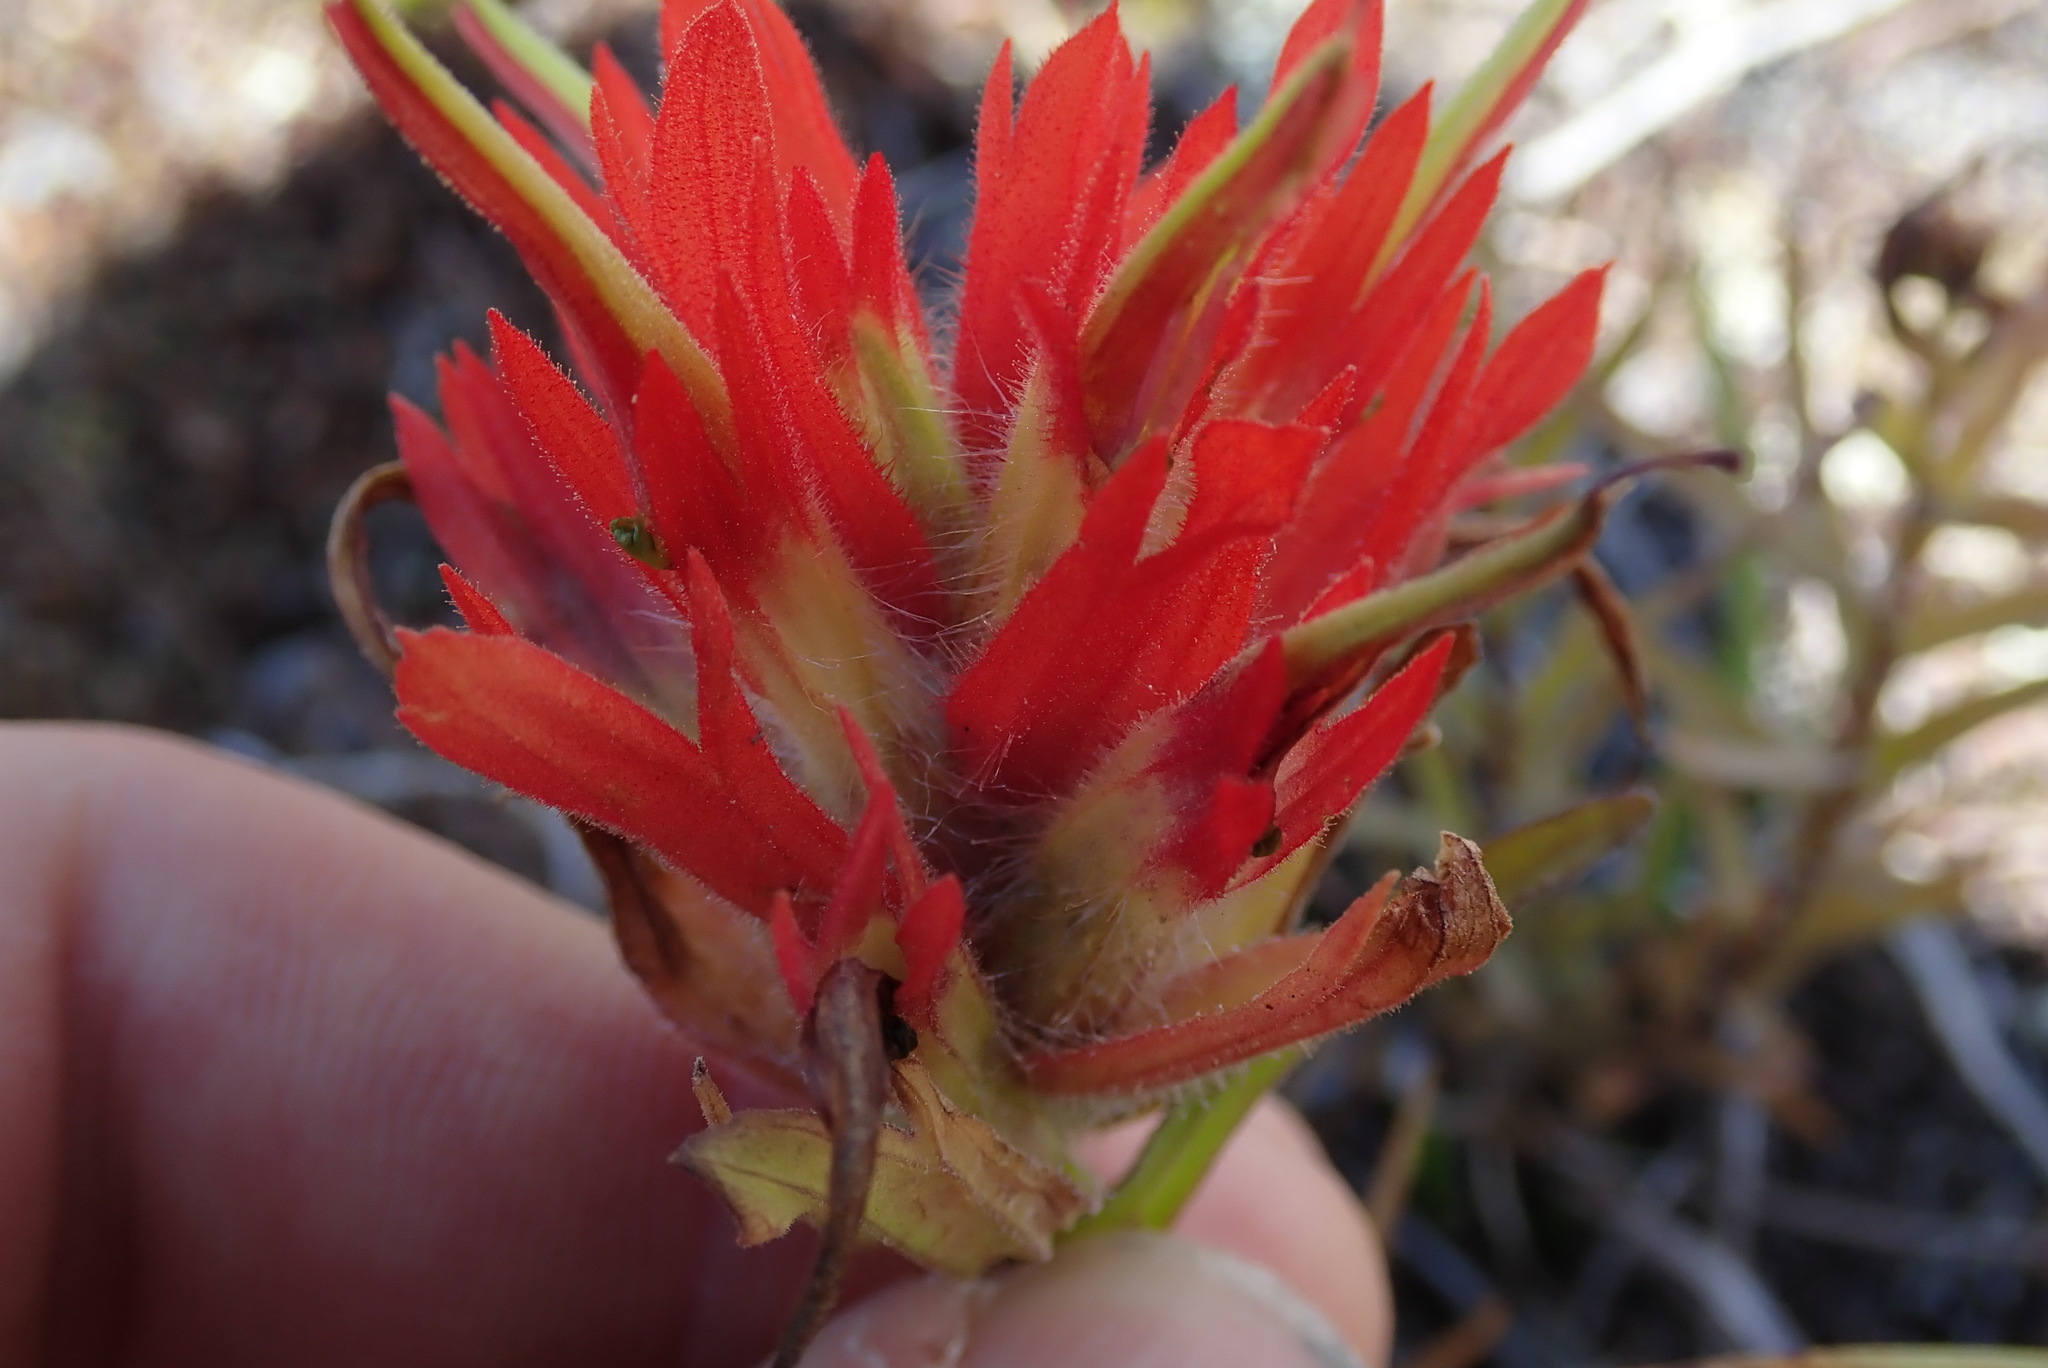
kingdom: Plantae
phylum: Tracheophyta
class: Magnoliopsida
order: Lamiales
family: Orobanchaceae
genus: Castilleja
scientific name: Castilleja miniata
